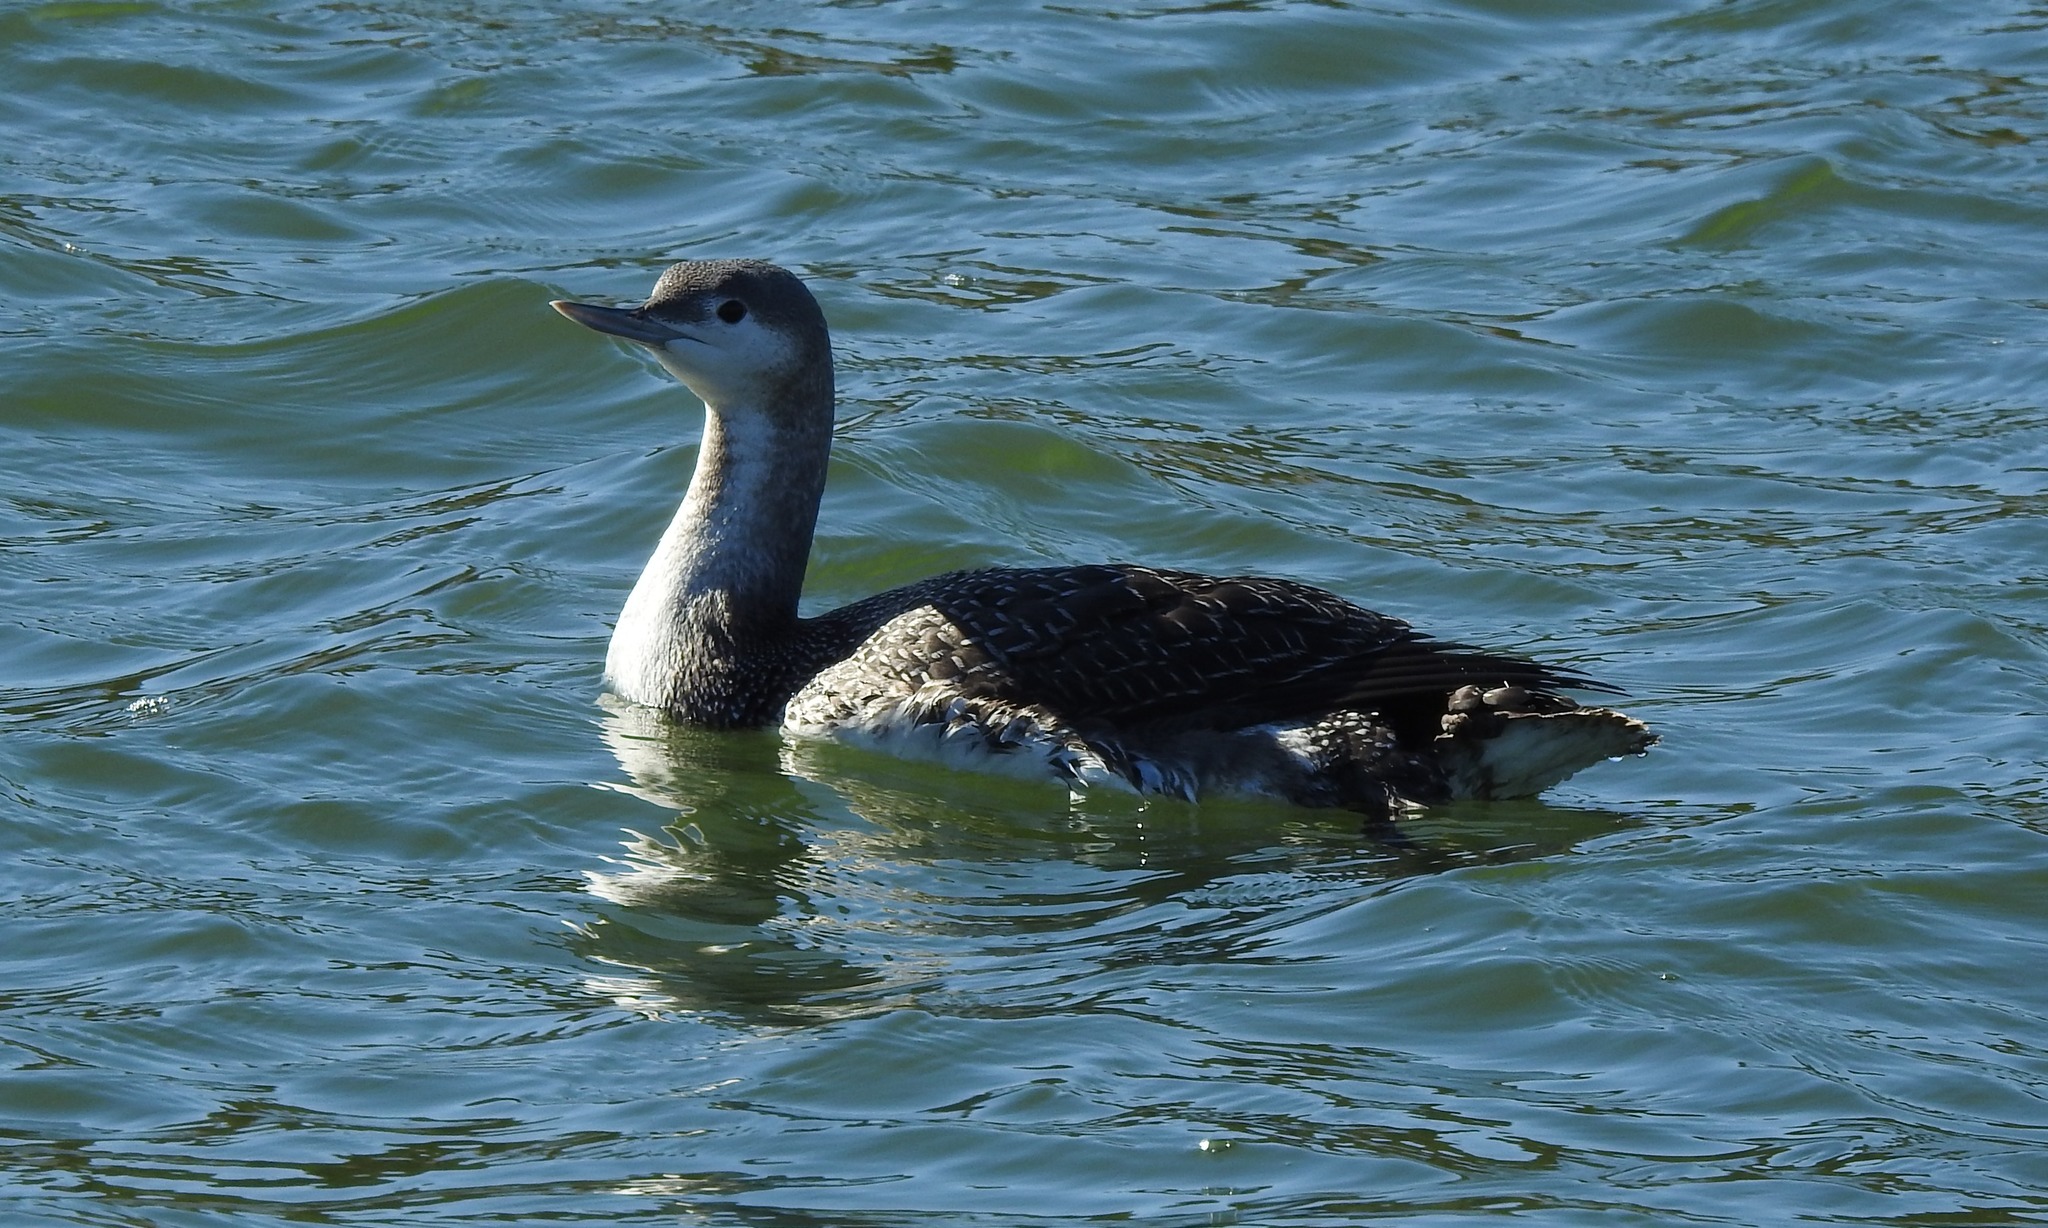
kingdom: Animalia
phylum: Chordata
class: Aves
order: Gaviiformes
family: Gaviidae
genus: Gavia
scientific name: Gavia stellata
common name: Red-throated loon
